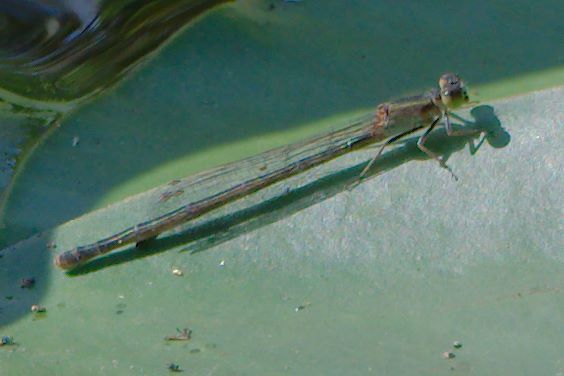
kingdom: Animalia
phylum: Arthropoda
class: Insecta
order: Odonata
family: Coenagrionidae
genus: Ischnura
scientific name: Ischnura ramburii
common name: Rambur's forktail
